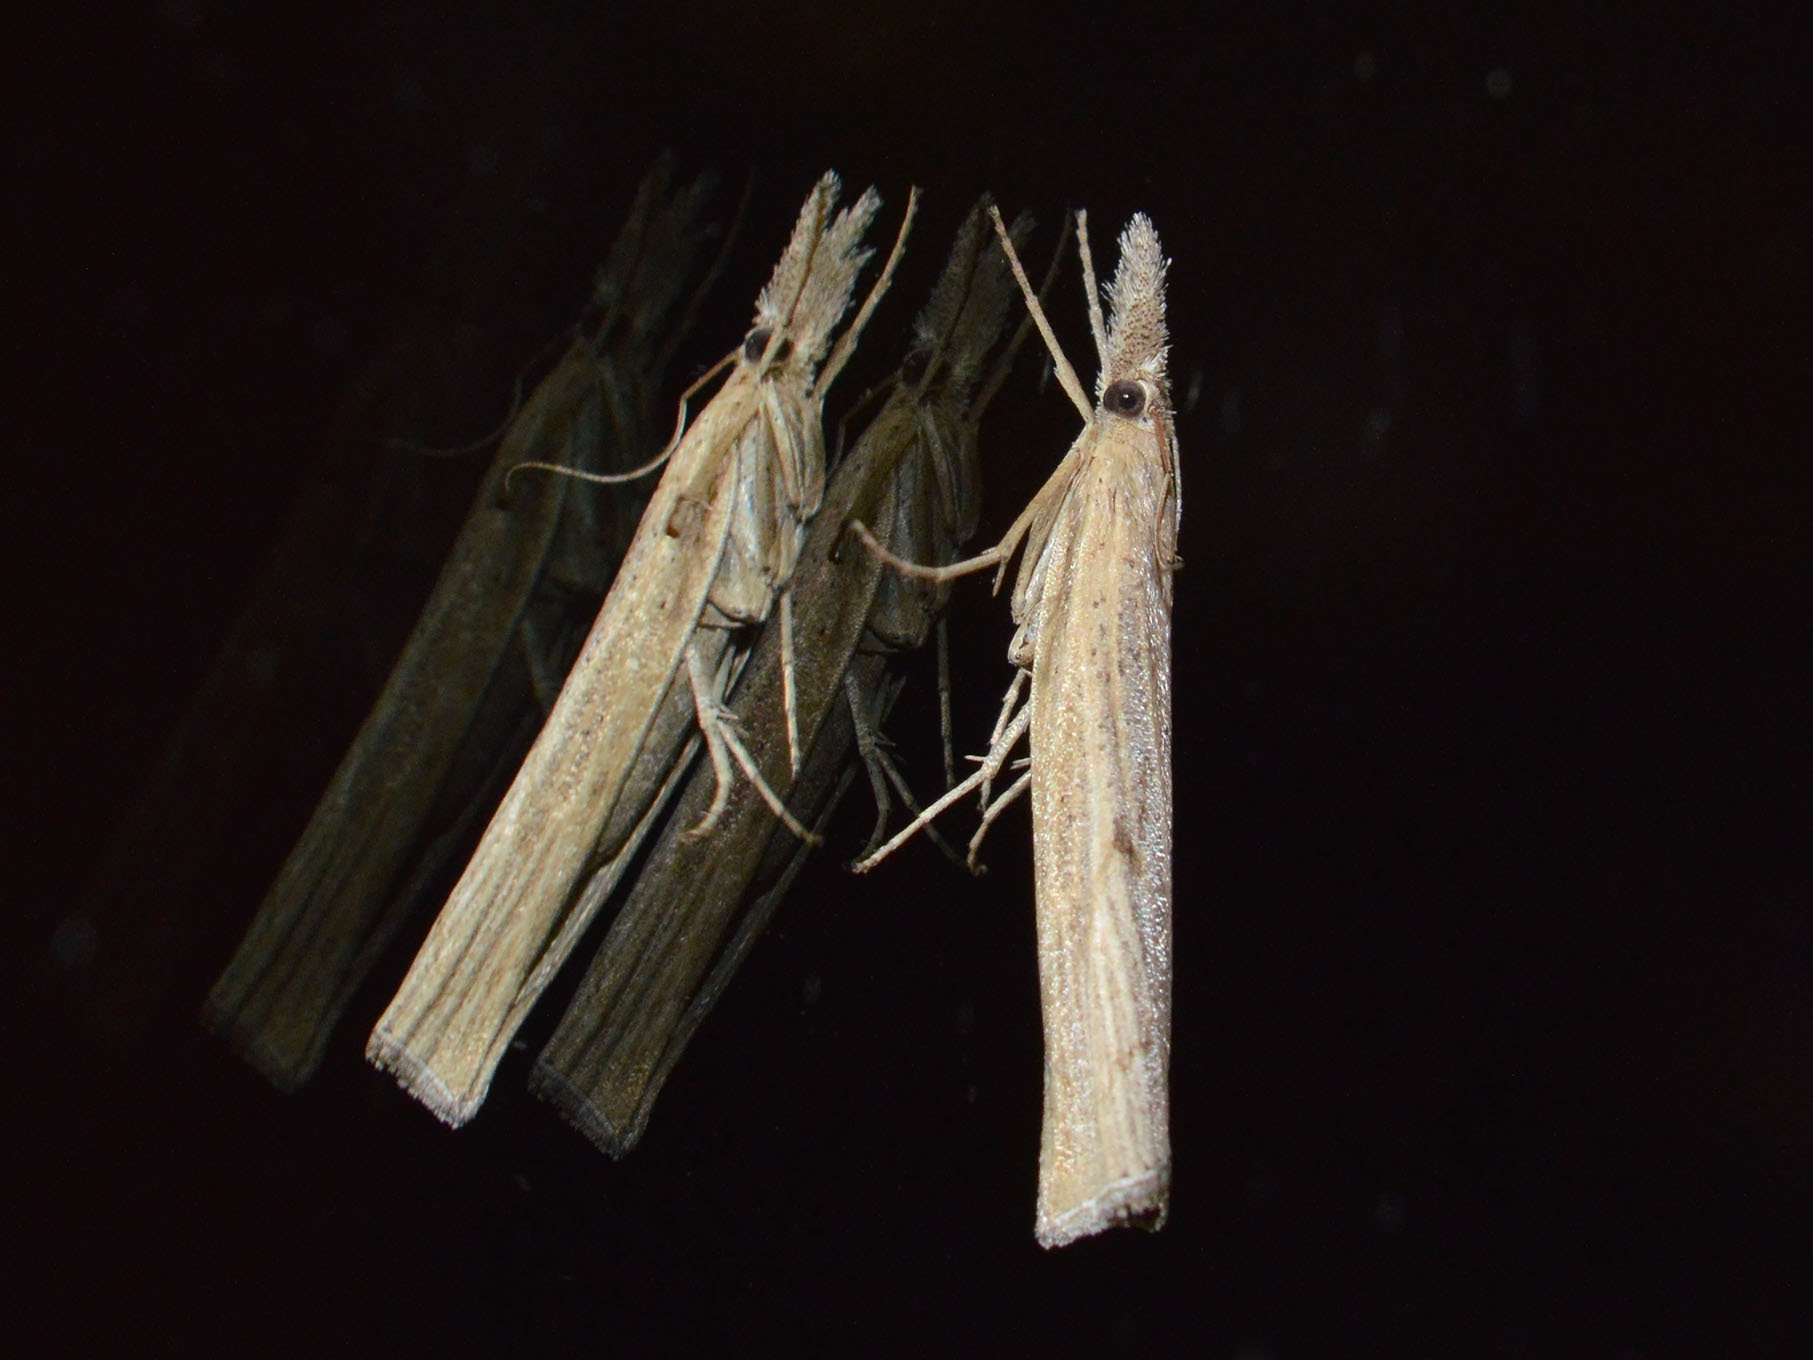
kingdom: Animalia
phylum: Arthropoda
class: Insecta
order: Lepidoptera
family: Crambidae
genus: Pediasia
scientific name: Pediasia contaminella
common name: Waste grass-veneer
